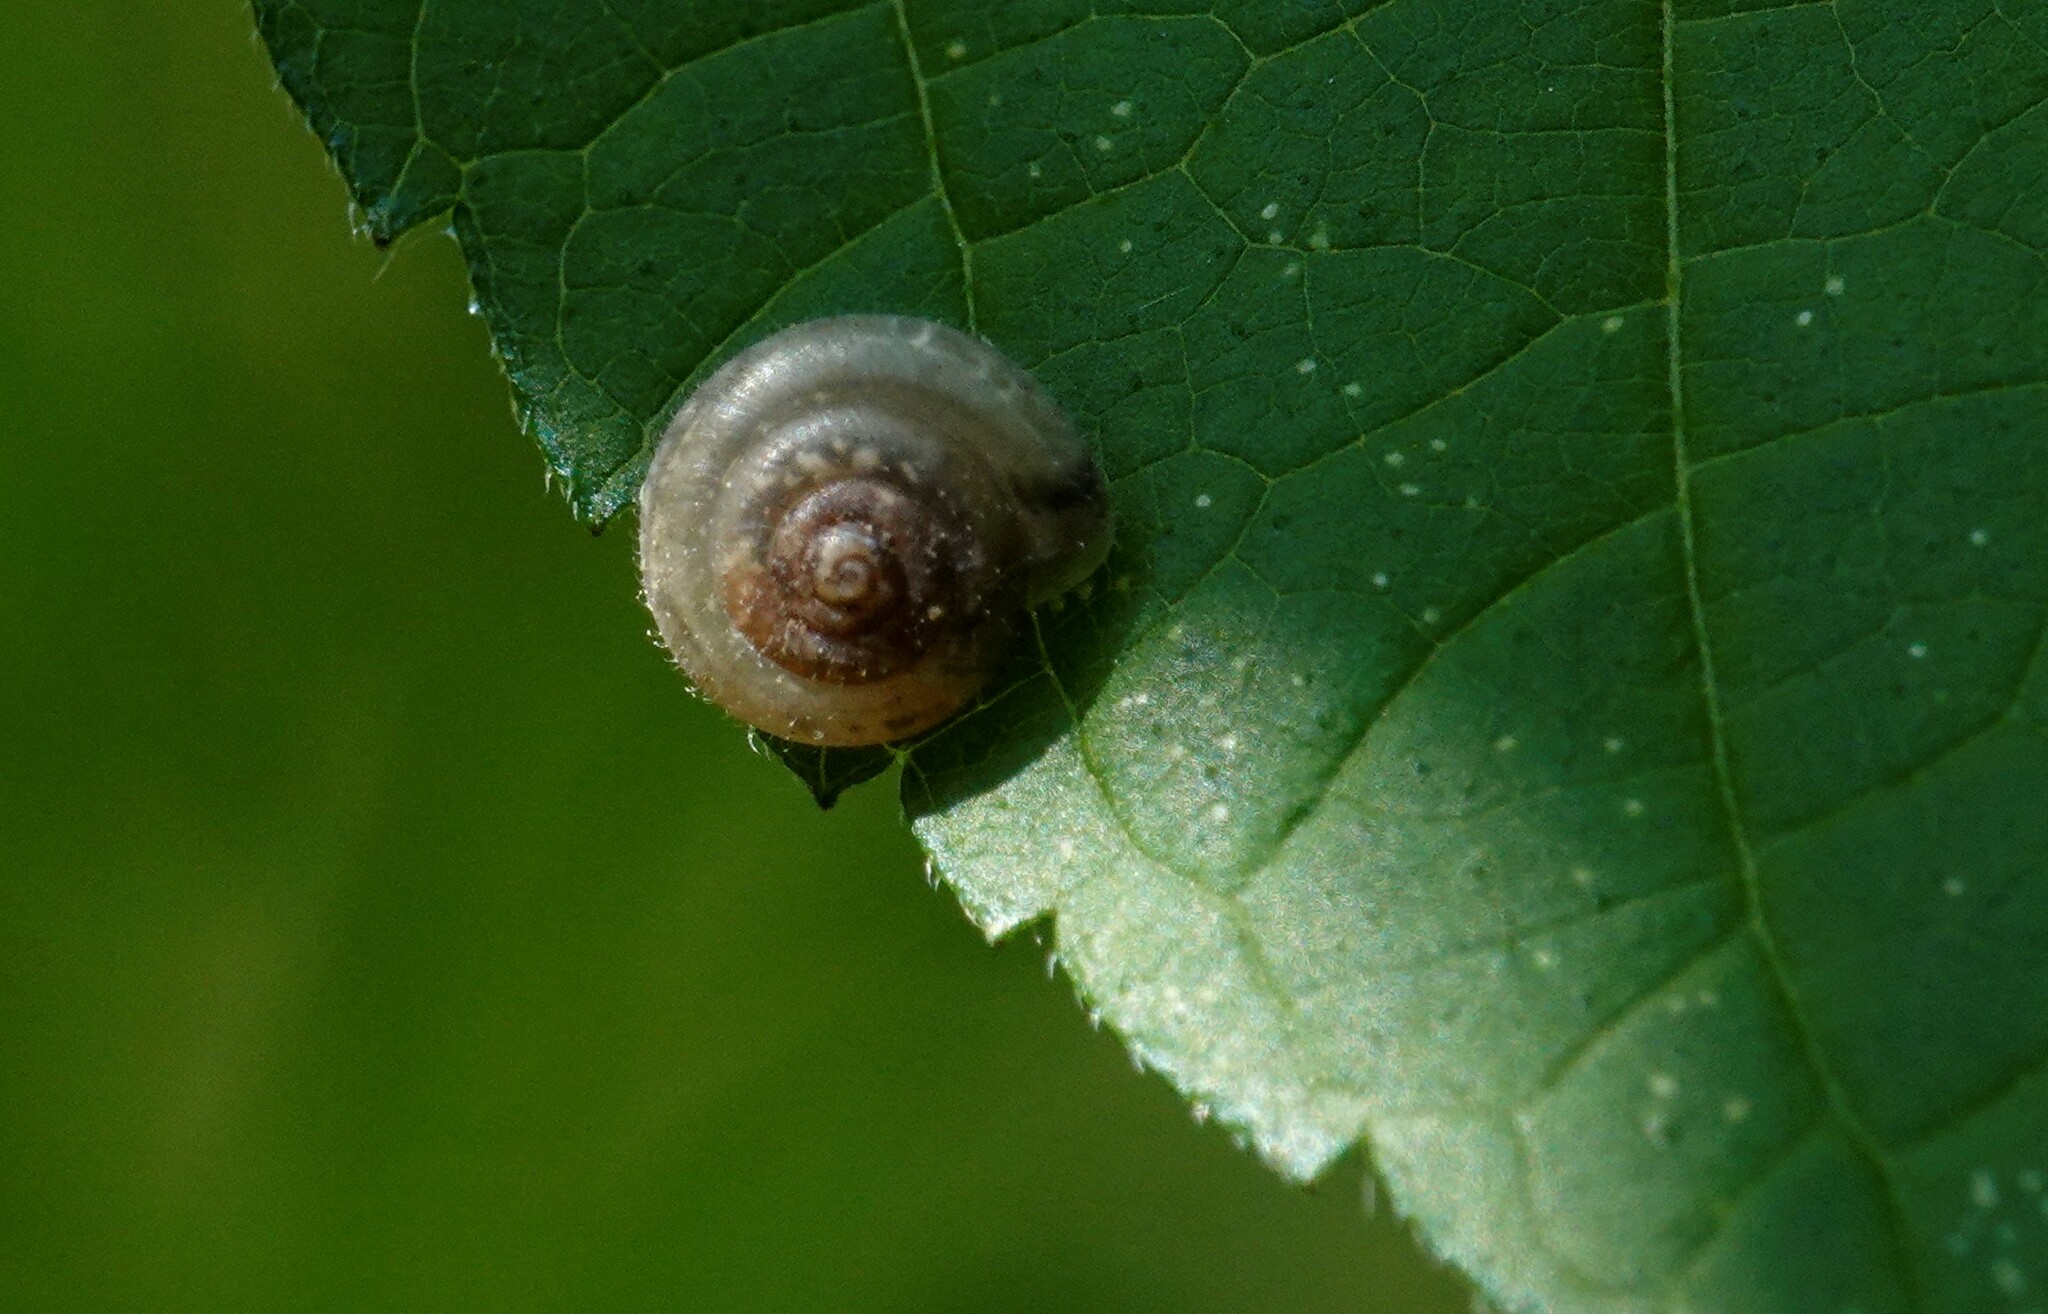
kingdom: Animalia
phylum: Mollusca
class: Gastropoda
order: Stylommatophora
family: Hygromiidae
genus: Trochulus
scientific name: Trochulus hispidus
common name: Hairy snail
